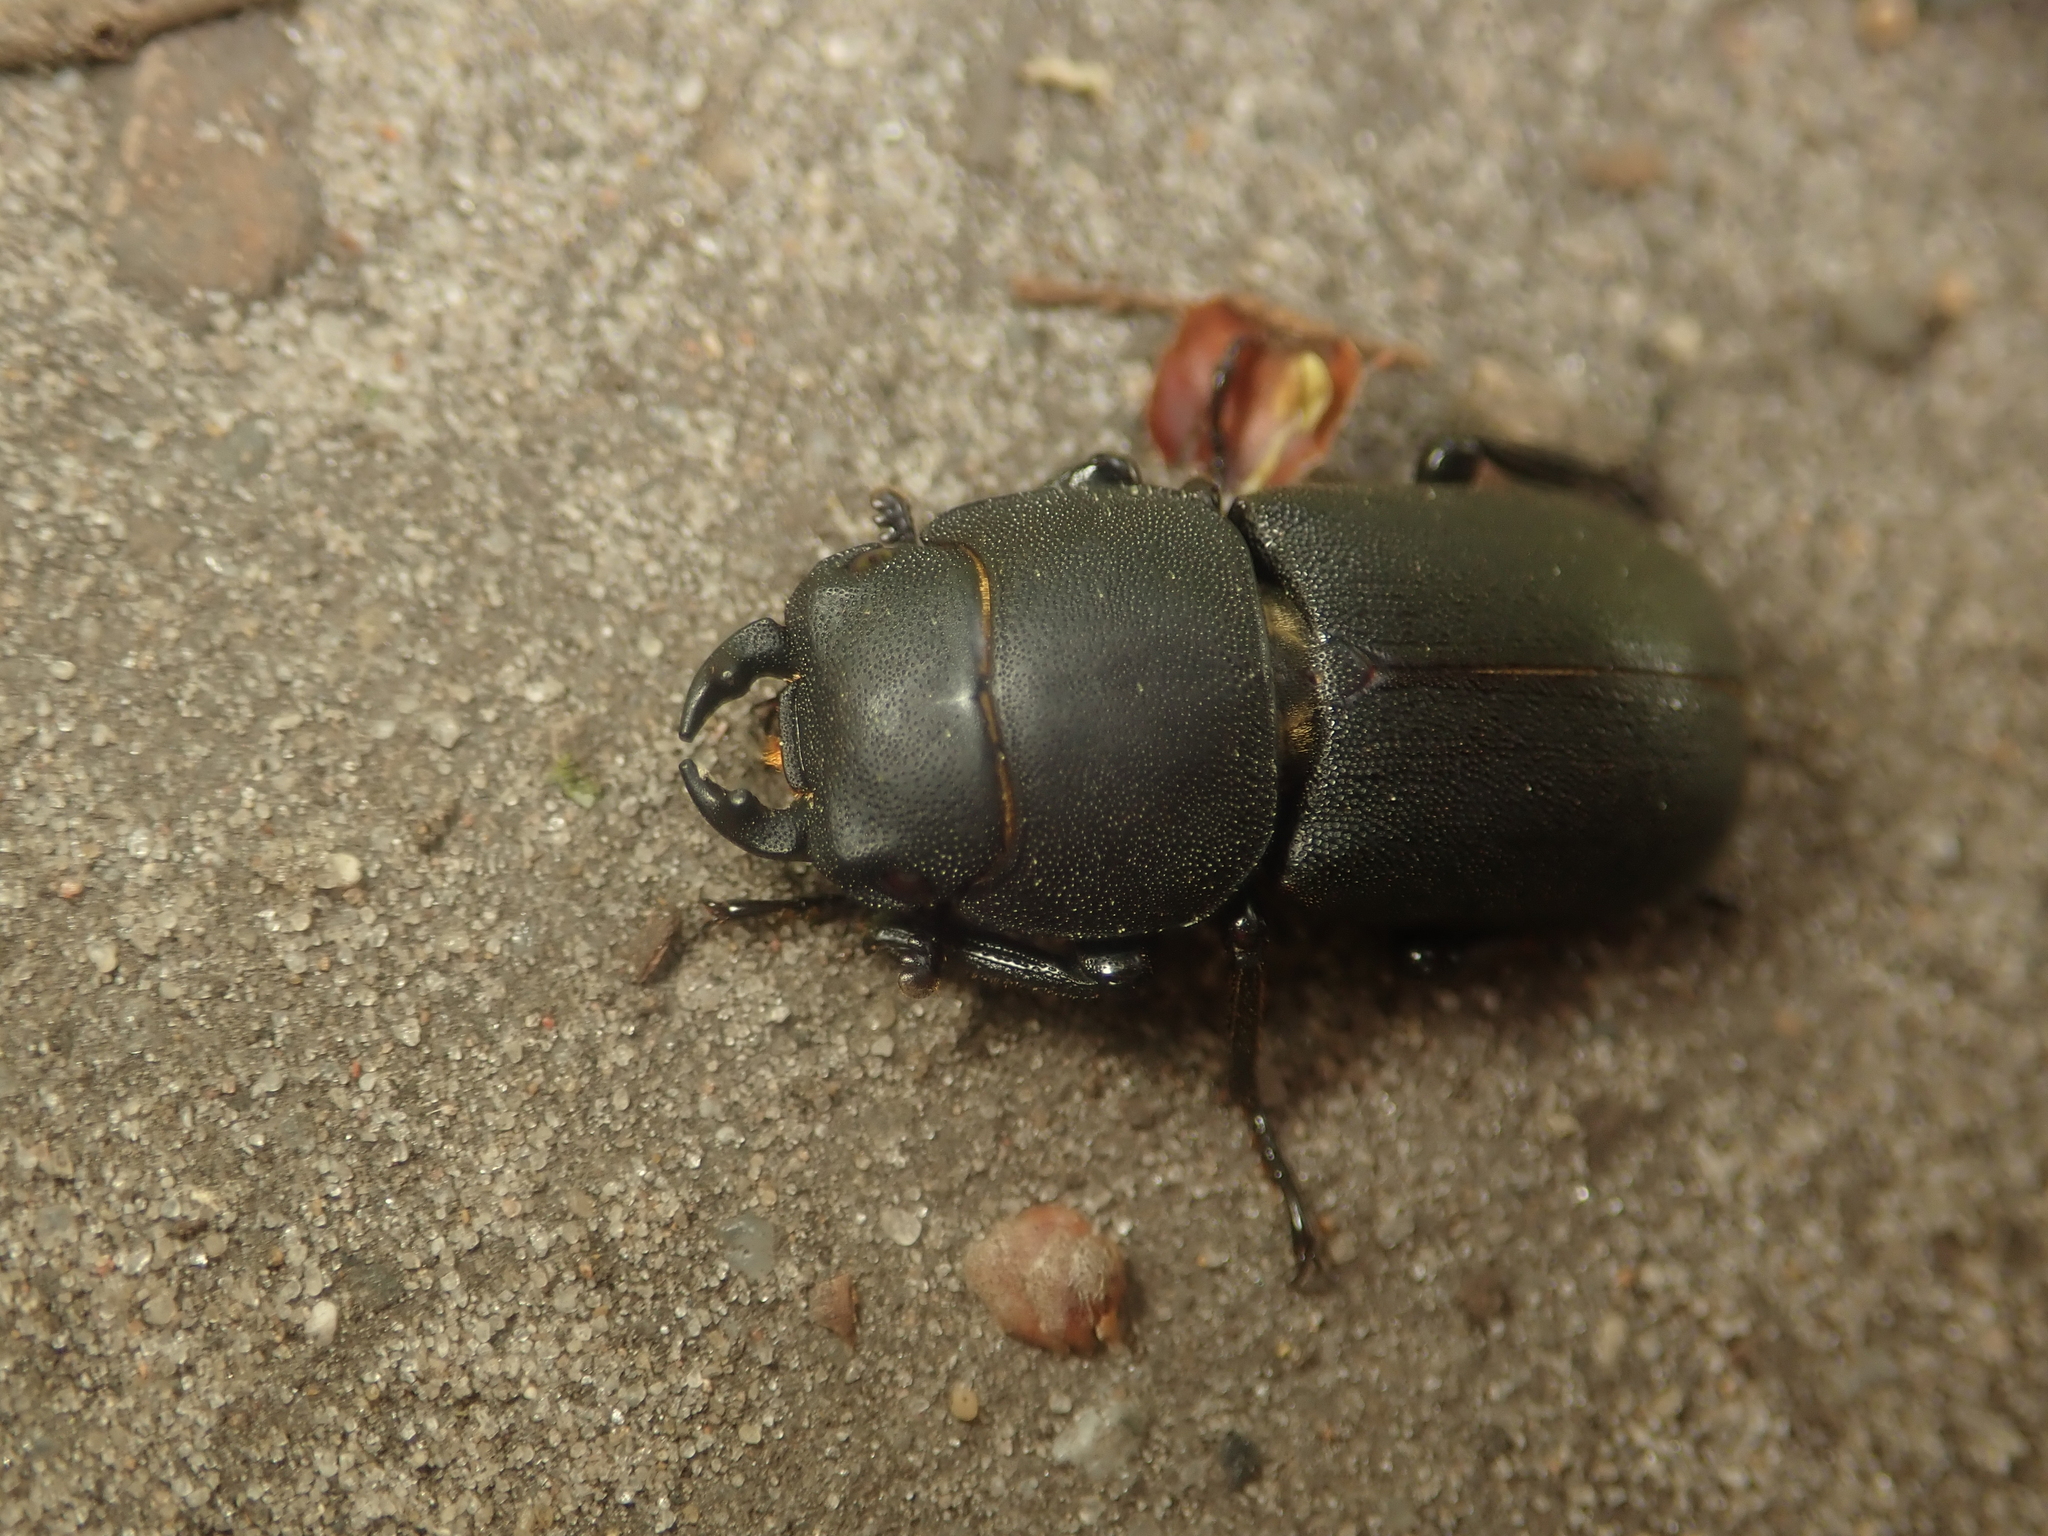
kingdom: Animalia
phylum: Arthropoda
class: Insecta
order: Coleoptera
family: Lucanidae
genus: Dorcus
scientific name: Dorcus parallelipipedus
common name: Lesser stag beetle
